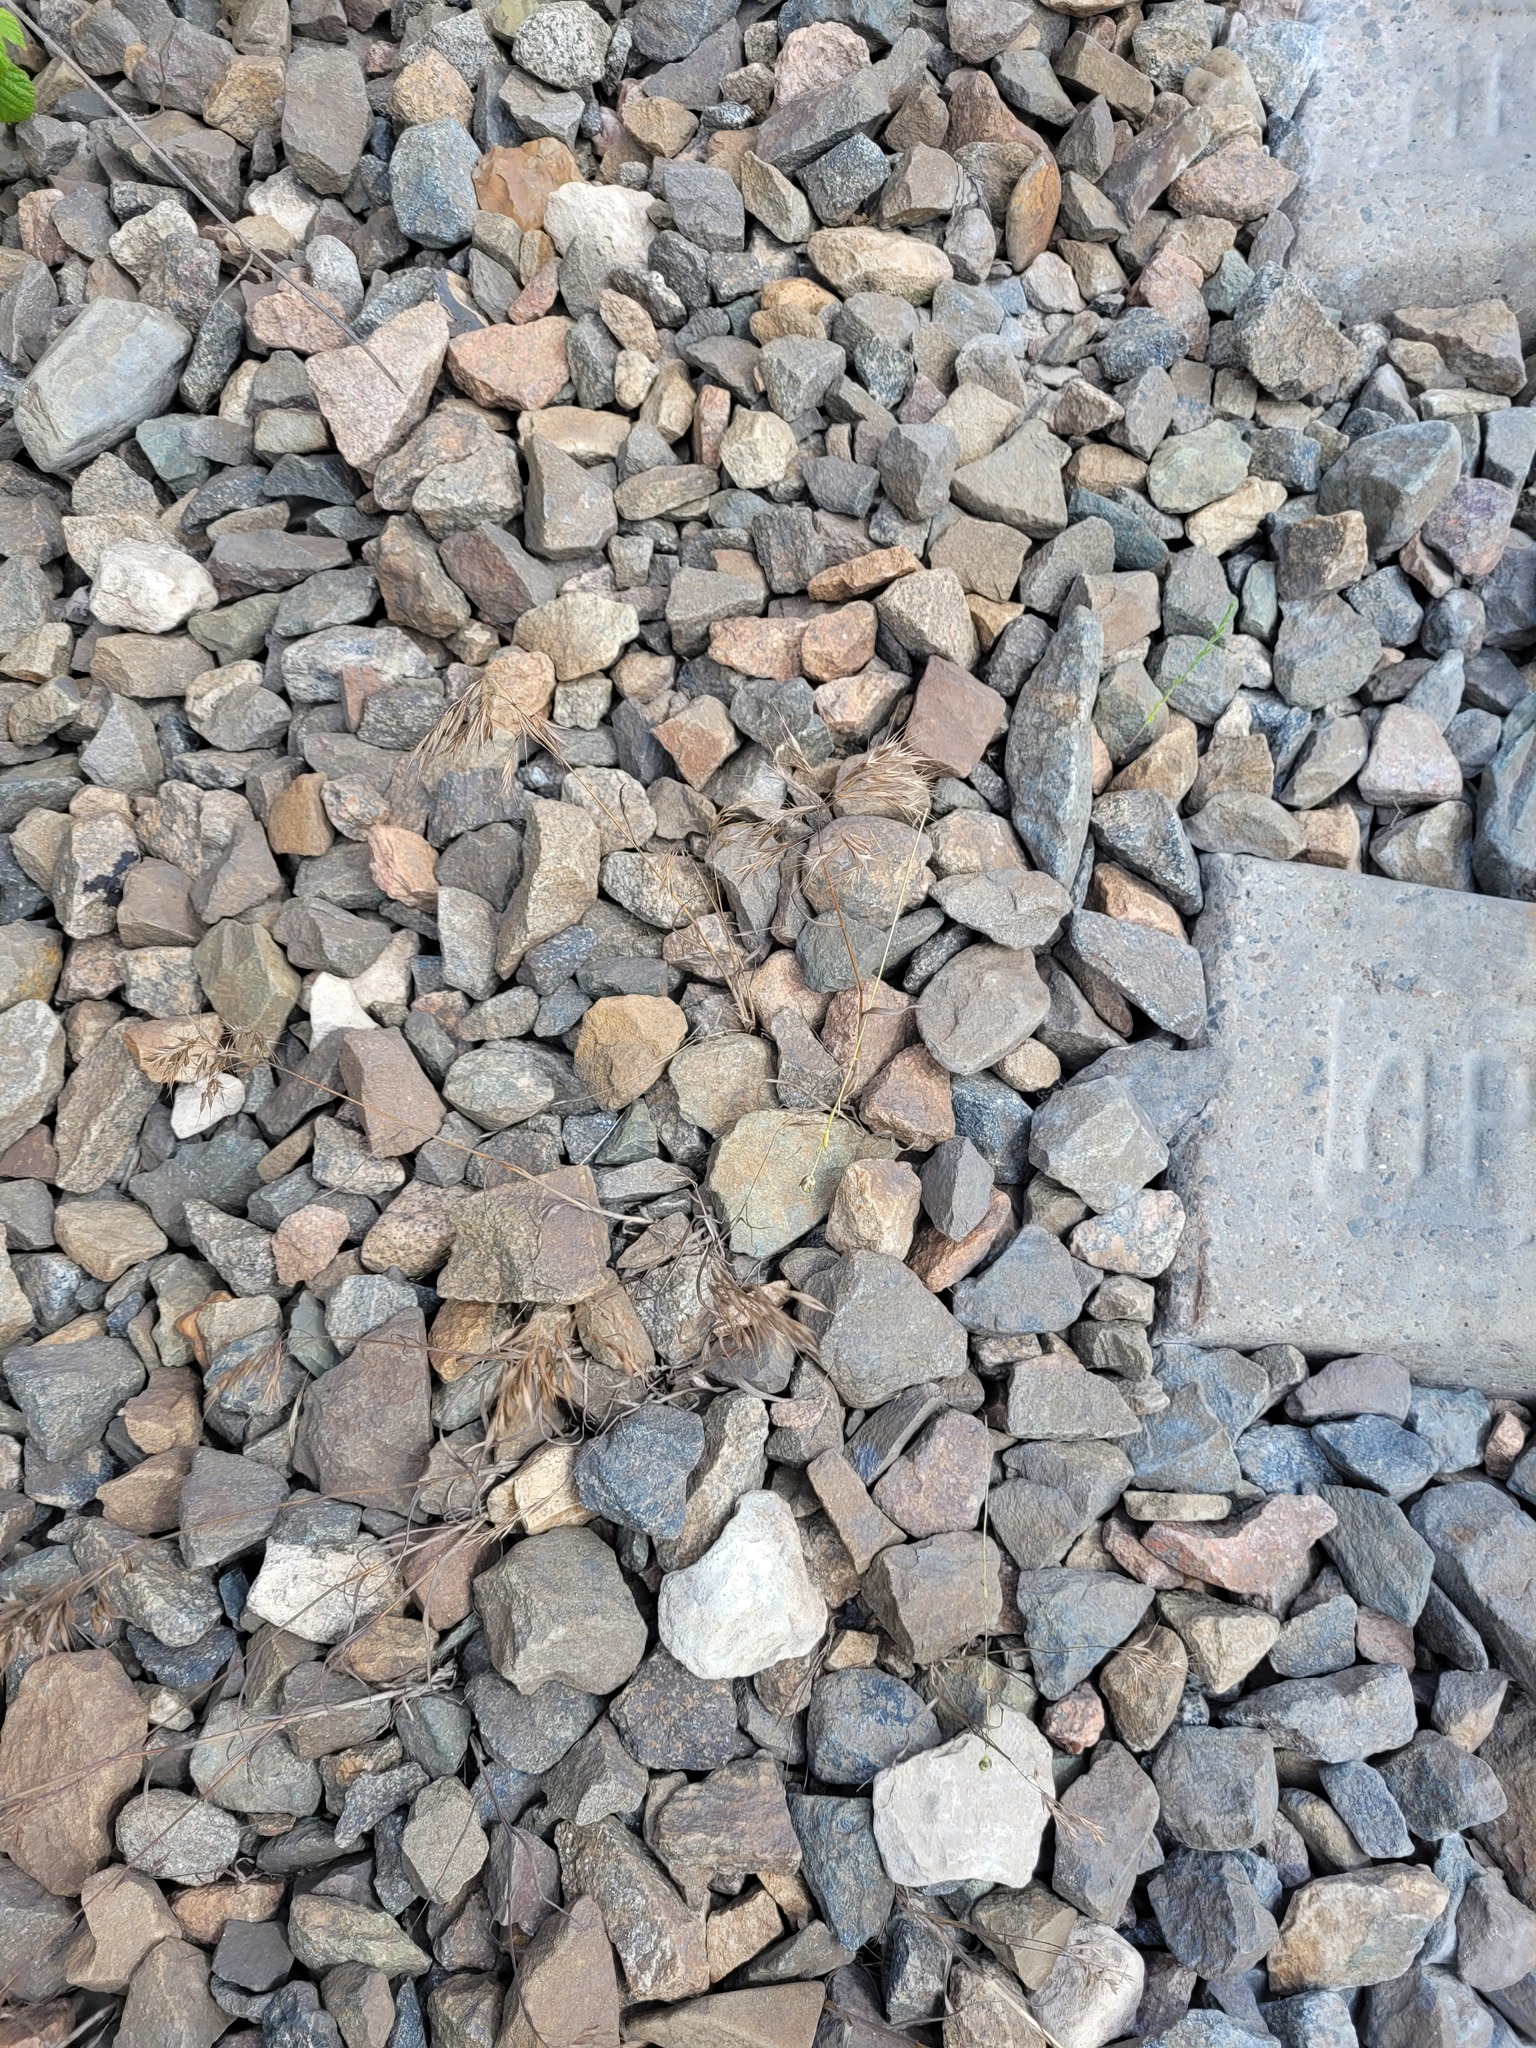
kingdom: Plantae
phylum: Tracheophyta
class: Liliopsida
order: Poales
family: Poaceae
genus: Bromus
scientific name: Bromus tectorum
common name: Cheatgrass
